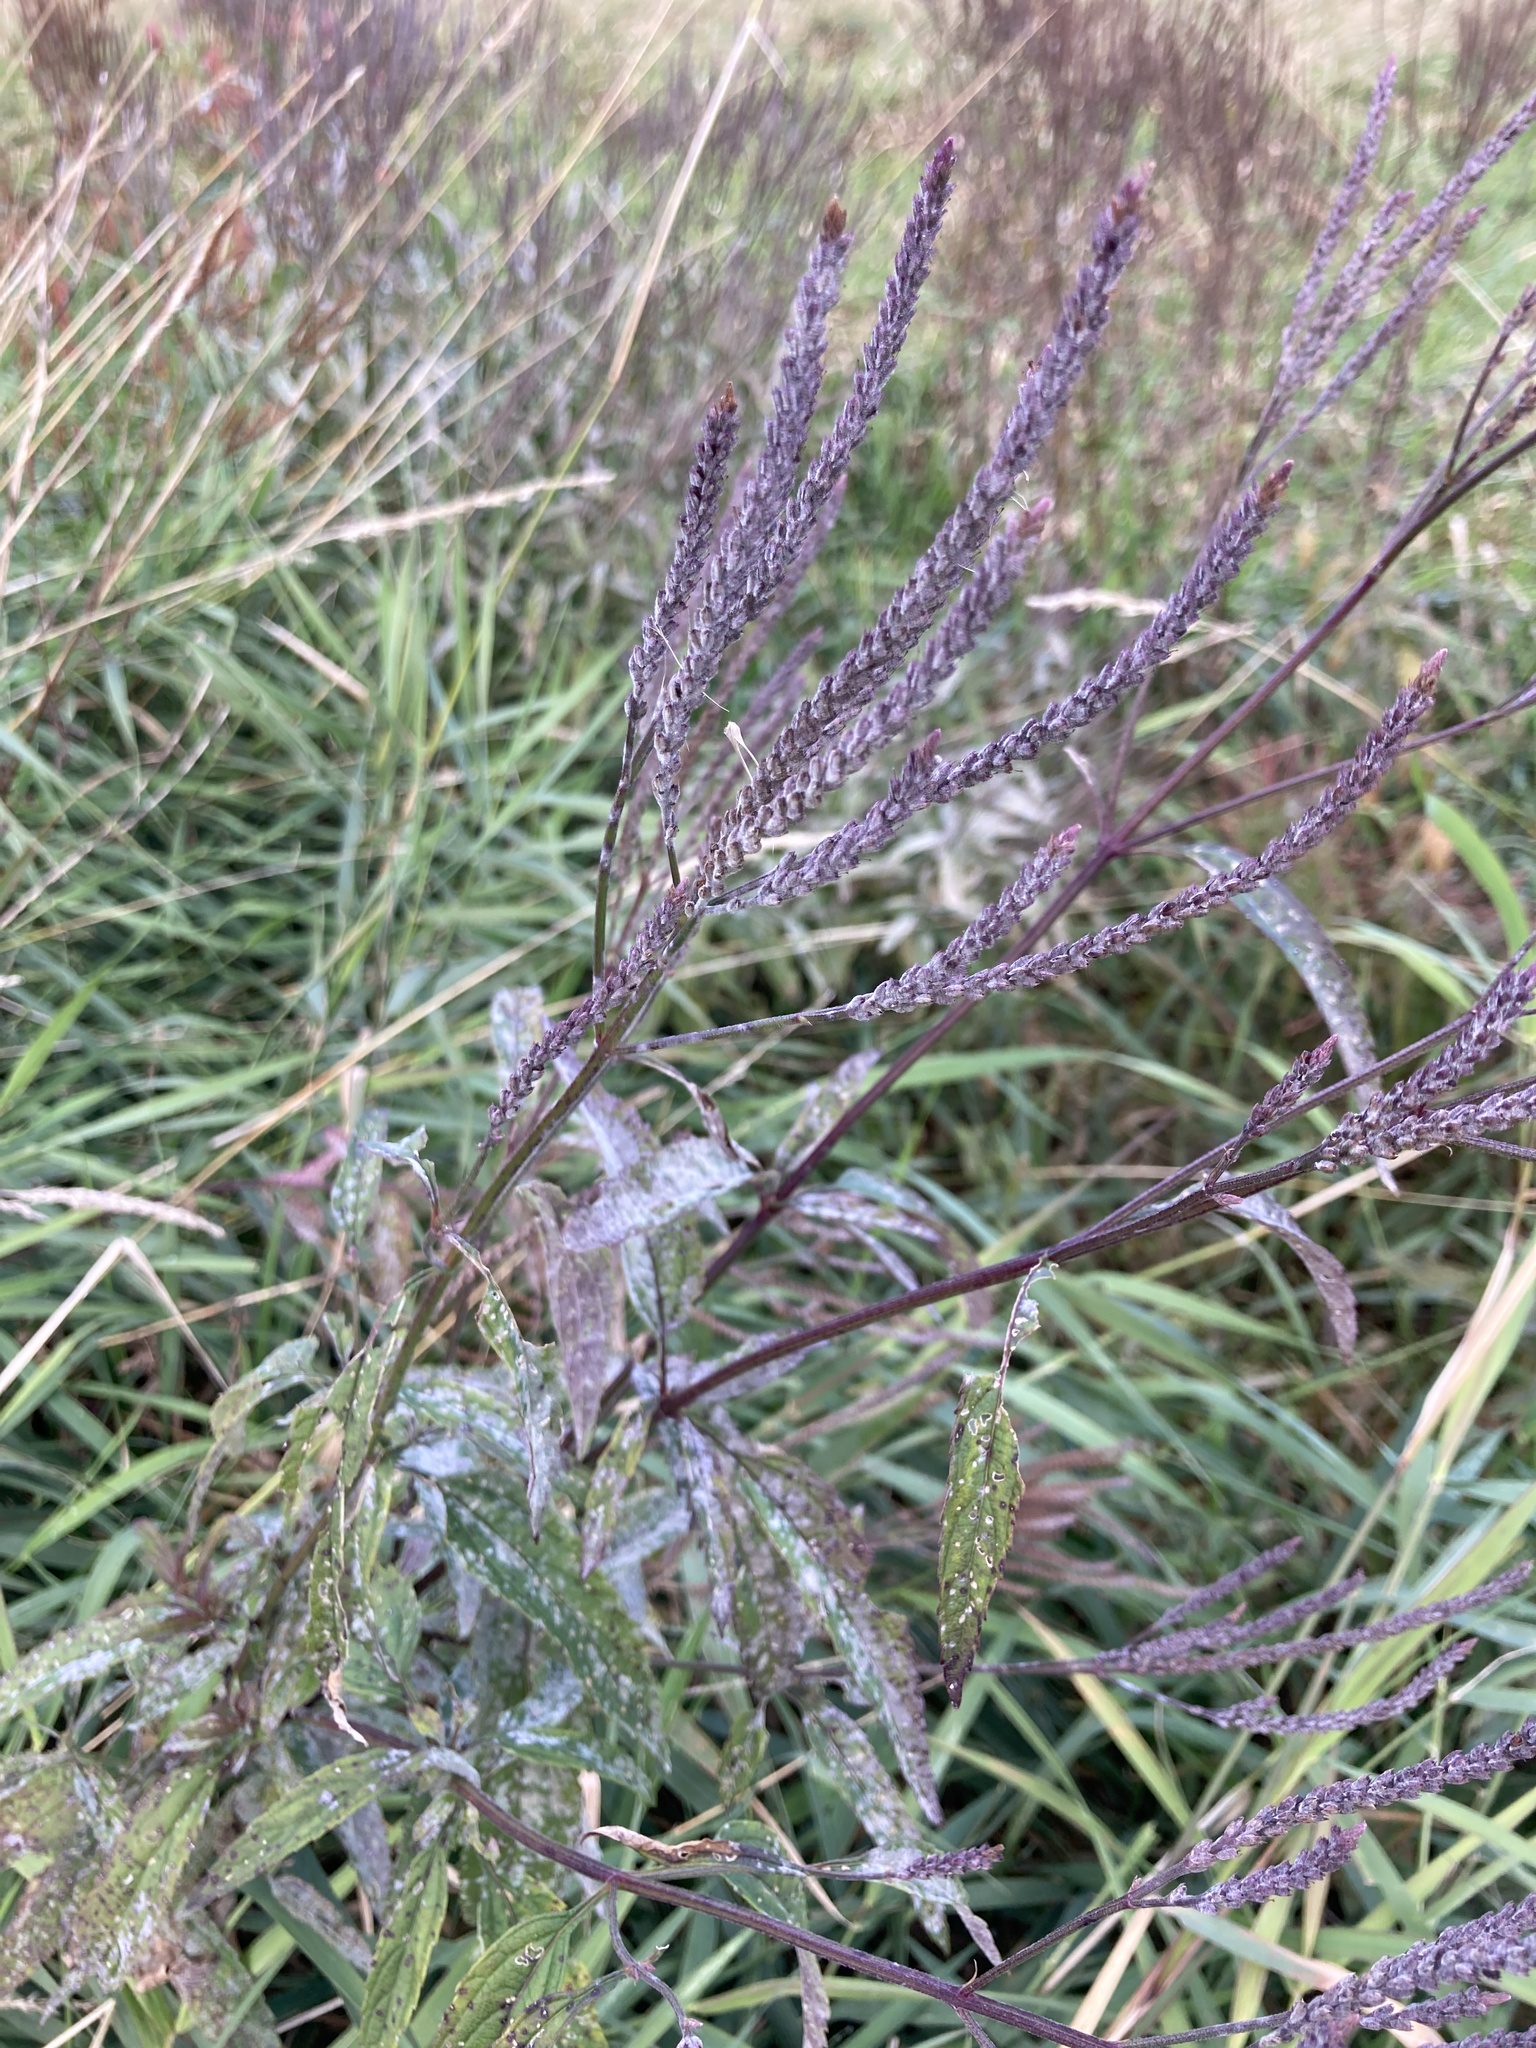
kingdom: Plantae
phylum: Tracheophyta
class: Magnoliopsida
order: Lamiales
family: Verbenaceae
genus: Verbena
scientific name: Verbena hastata
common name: American blue vervain
